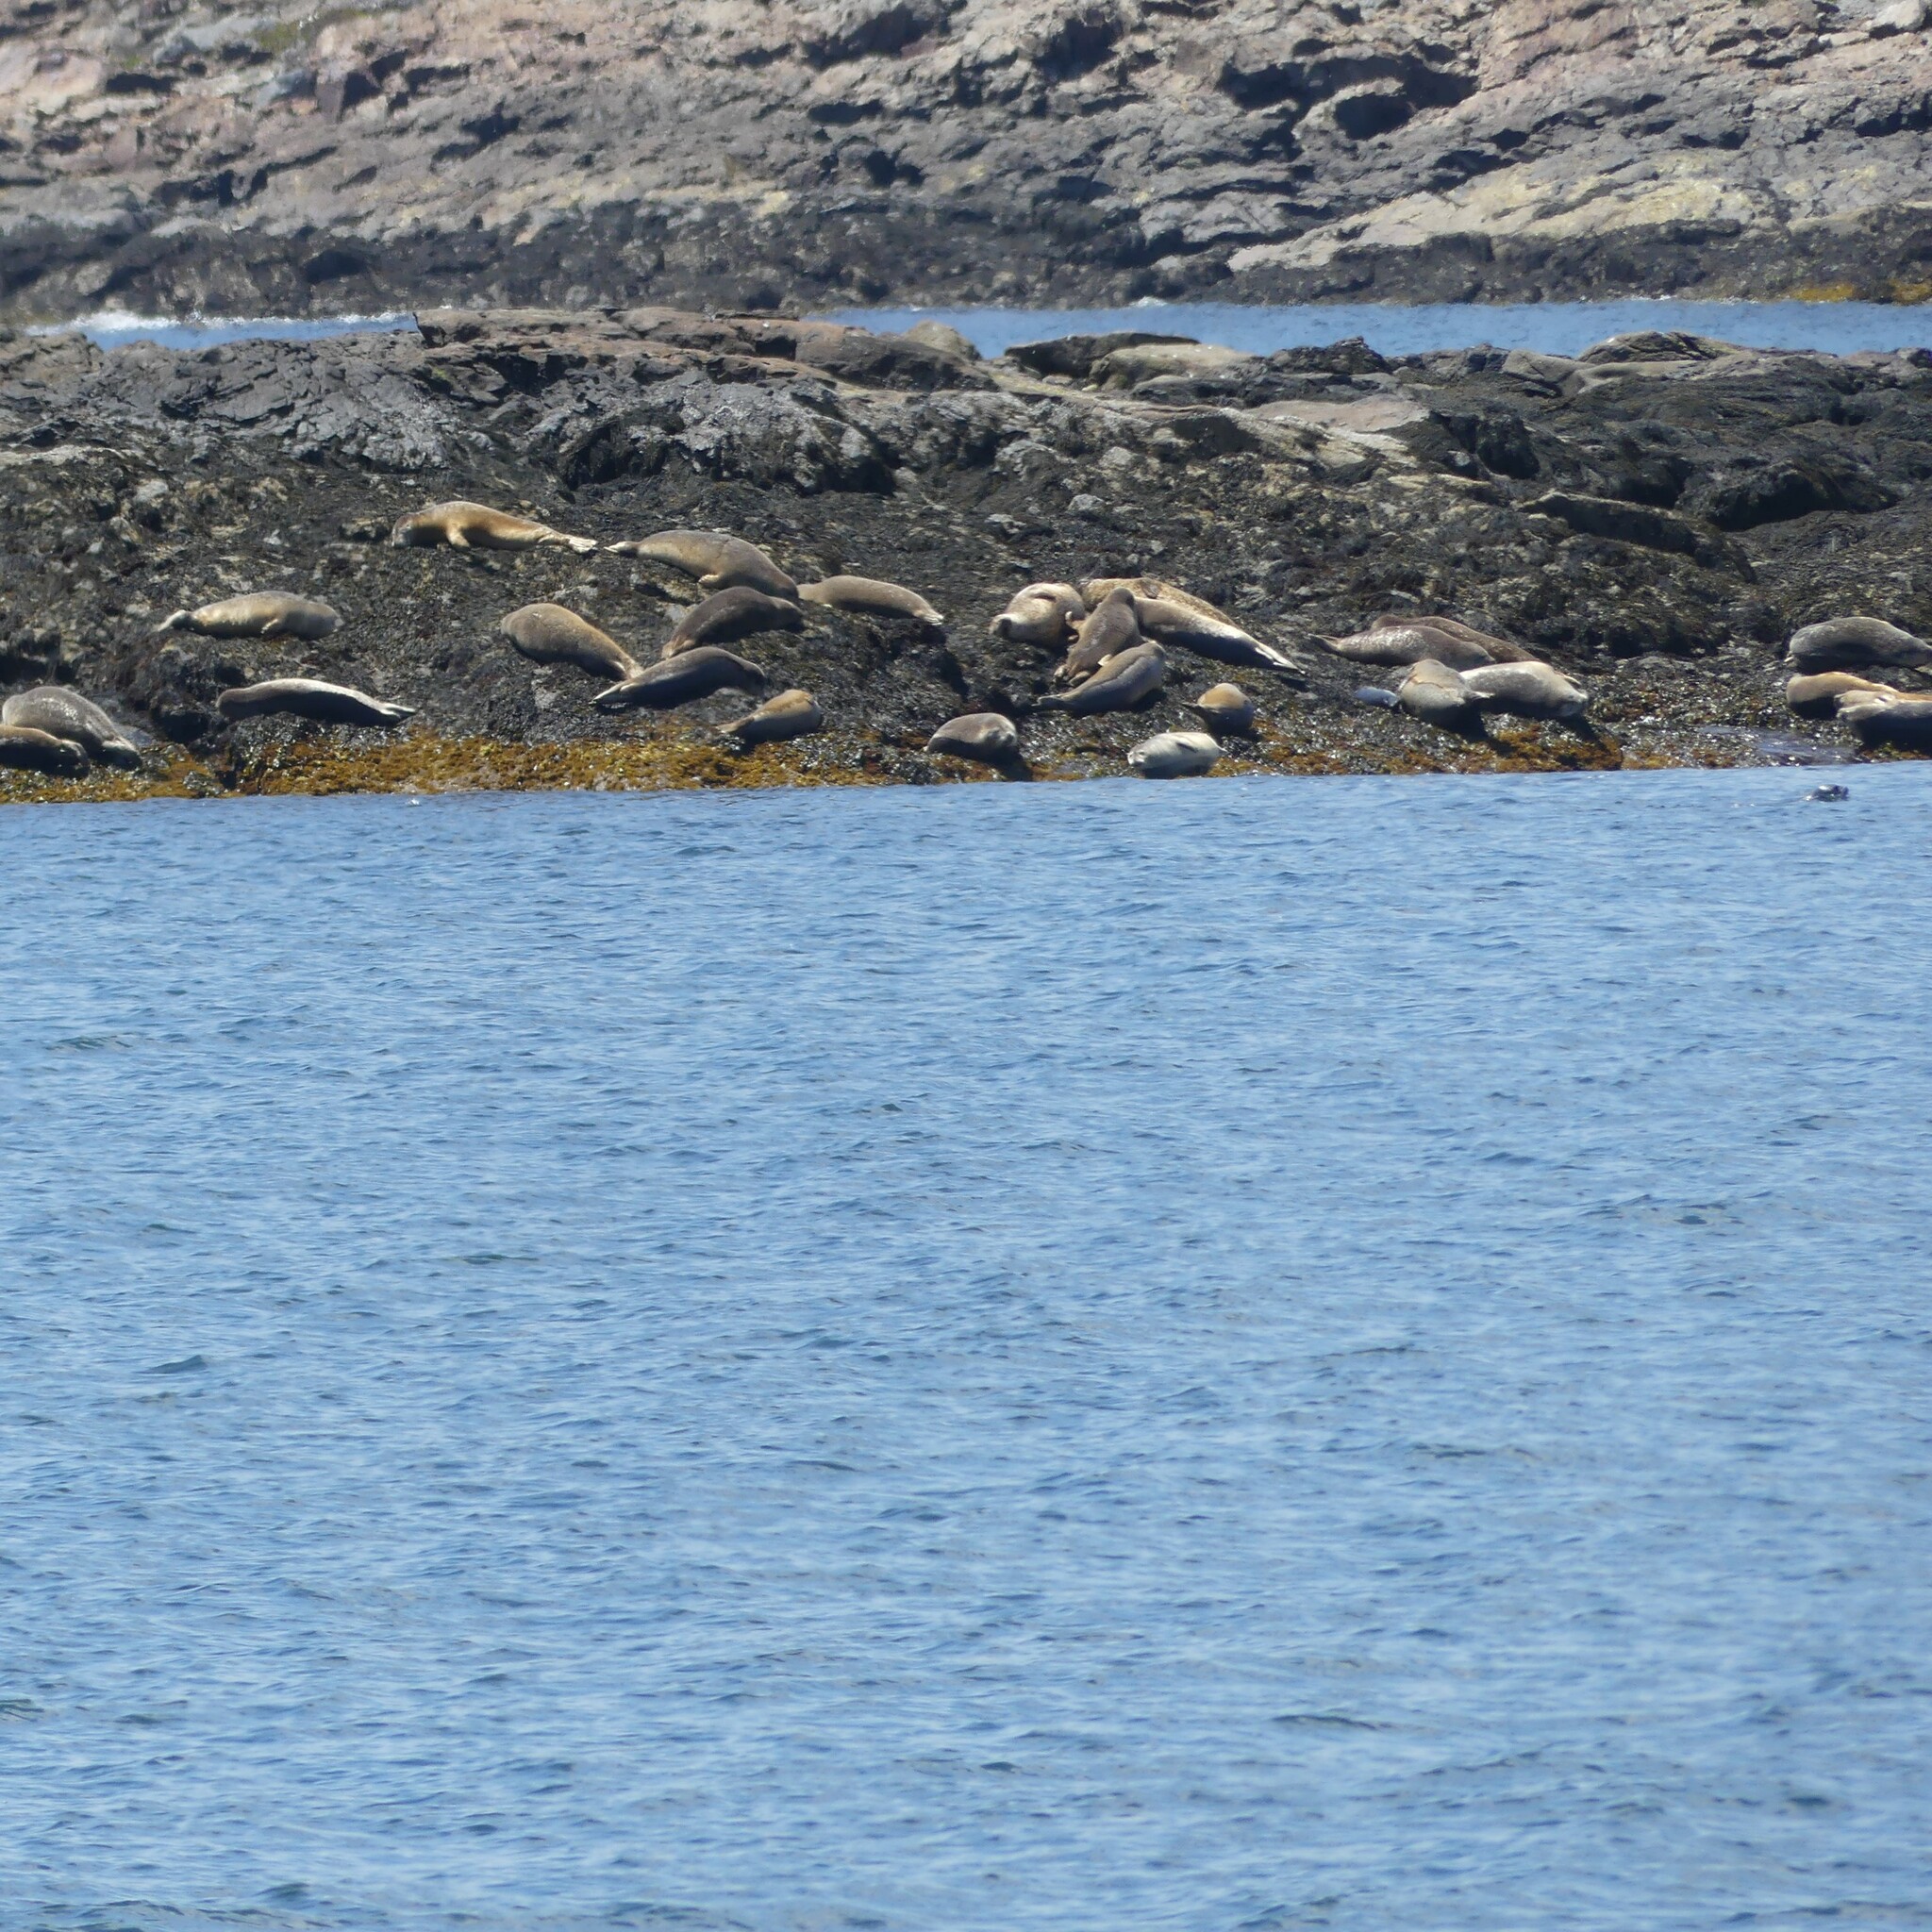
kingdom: Animalia
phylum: Chordata
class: Mammalia
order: Carnivora
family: Phocidae
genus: Phoca
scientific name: Phoca vitulina
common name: Harbor seal
